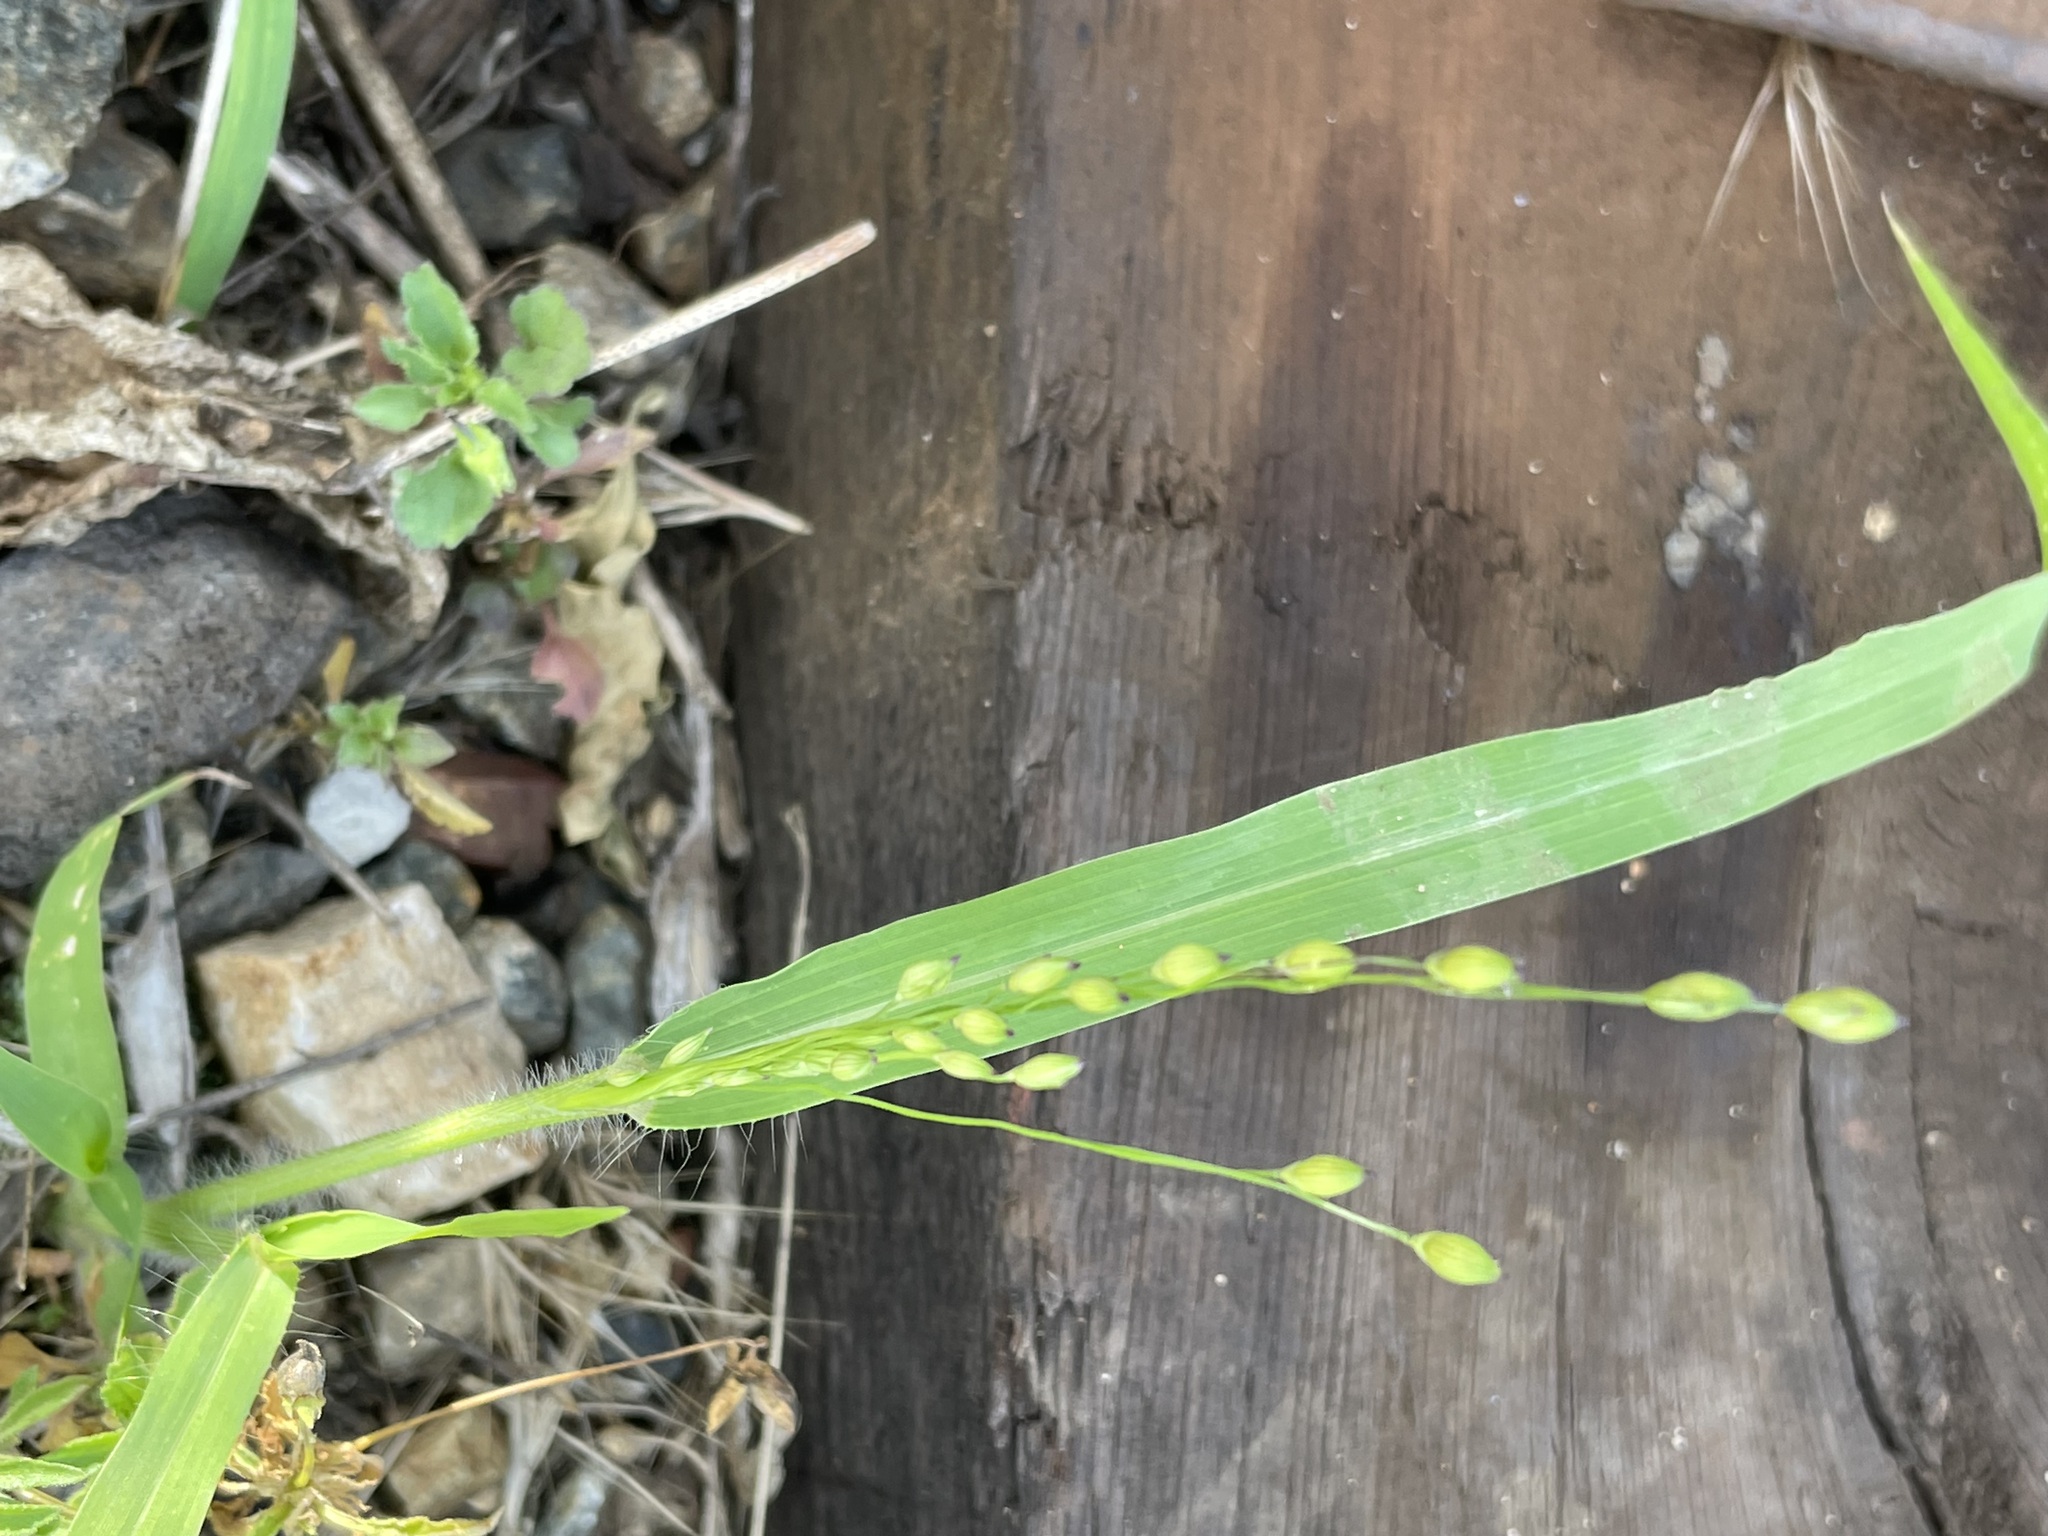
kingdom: Plantae
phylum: Tracheophyta
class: Liliopsida
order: Poales
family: Poaceae
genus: Panicum
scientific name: Panicum miliaceum
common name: Common millet
